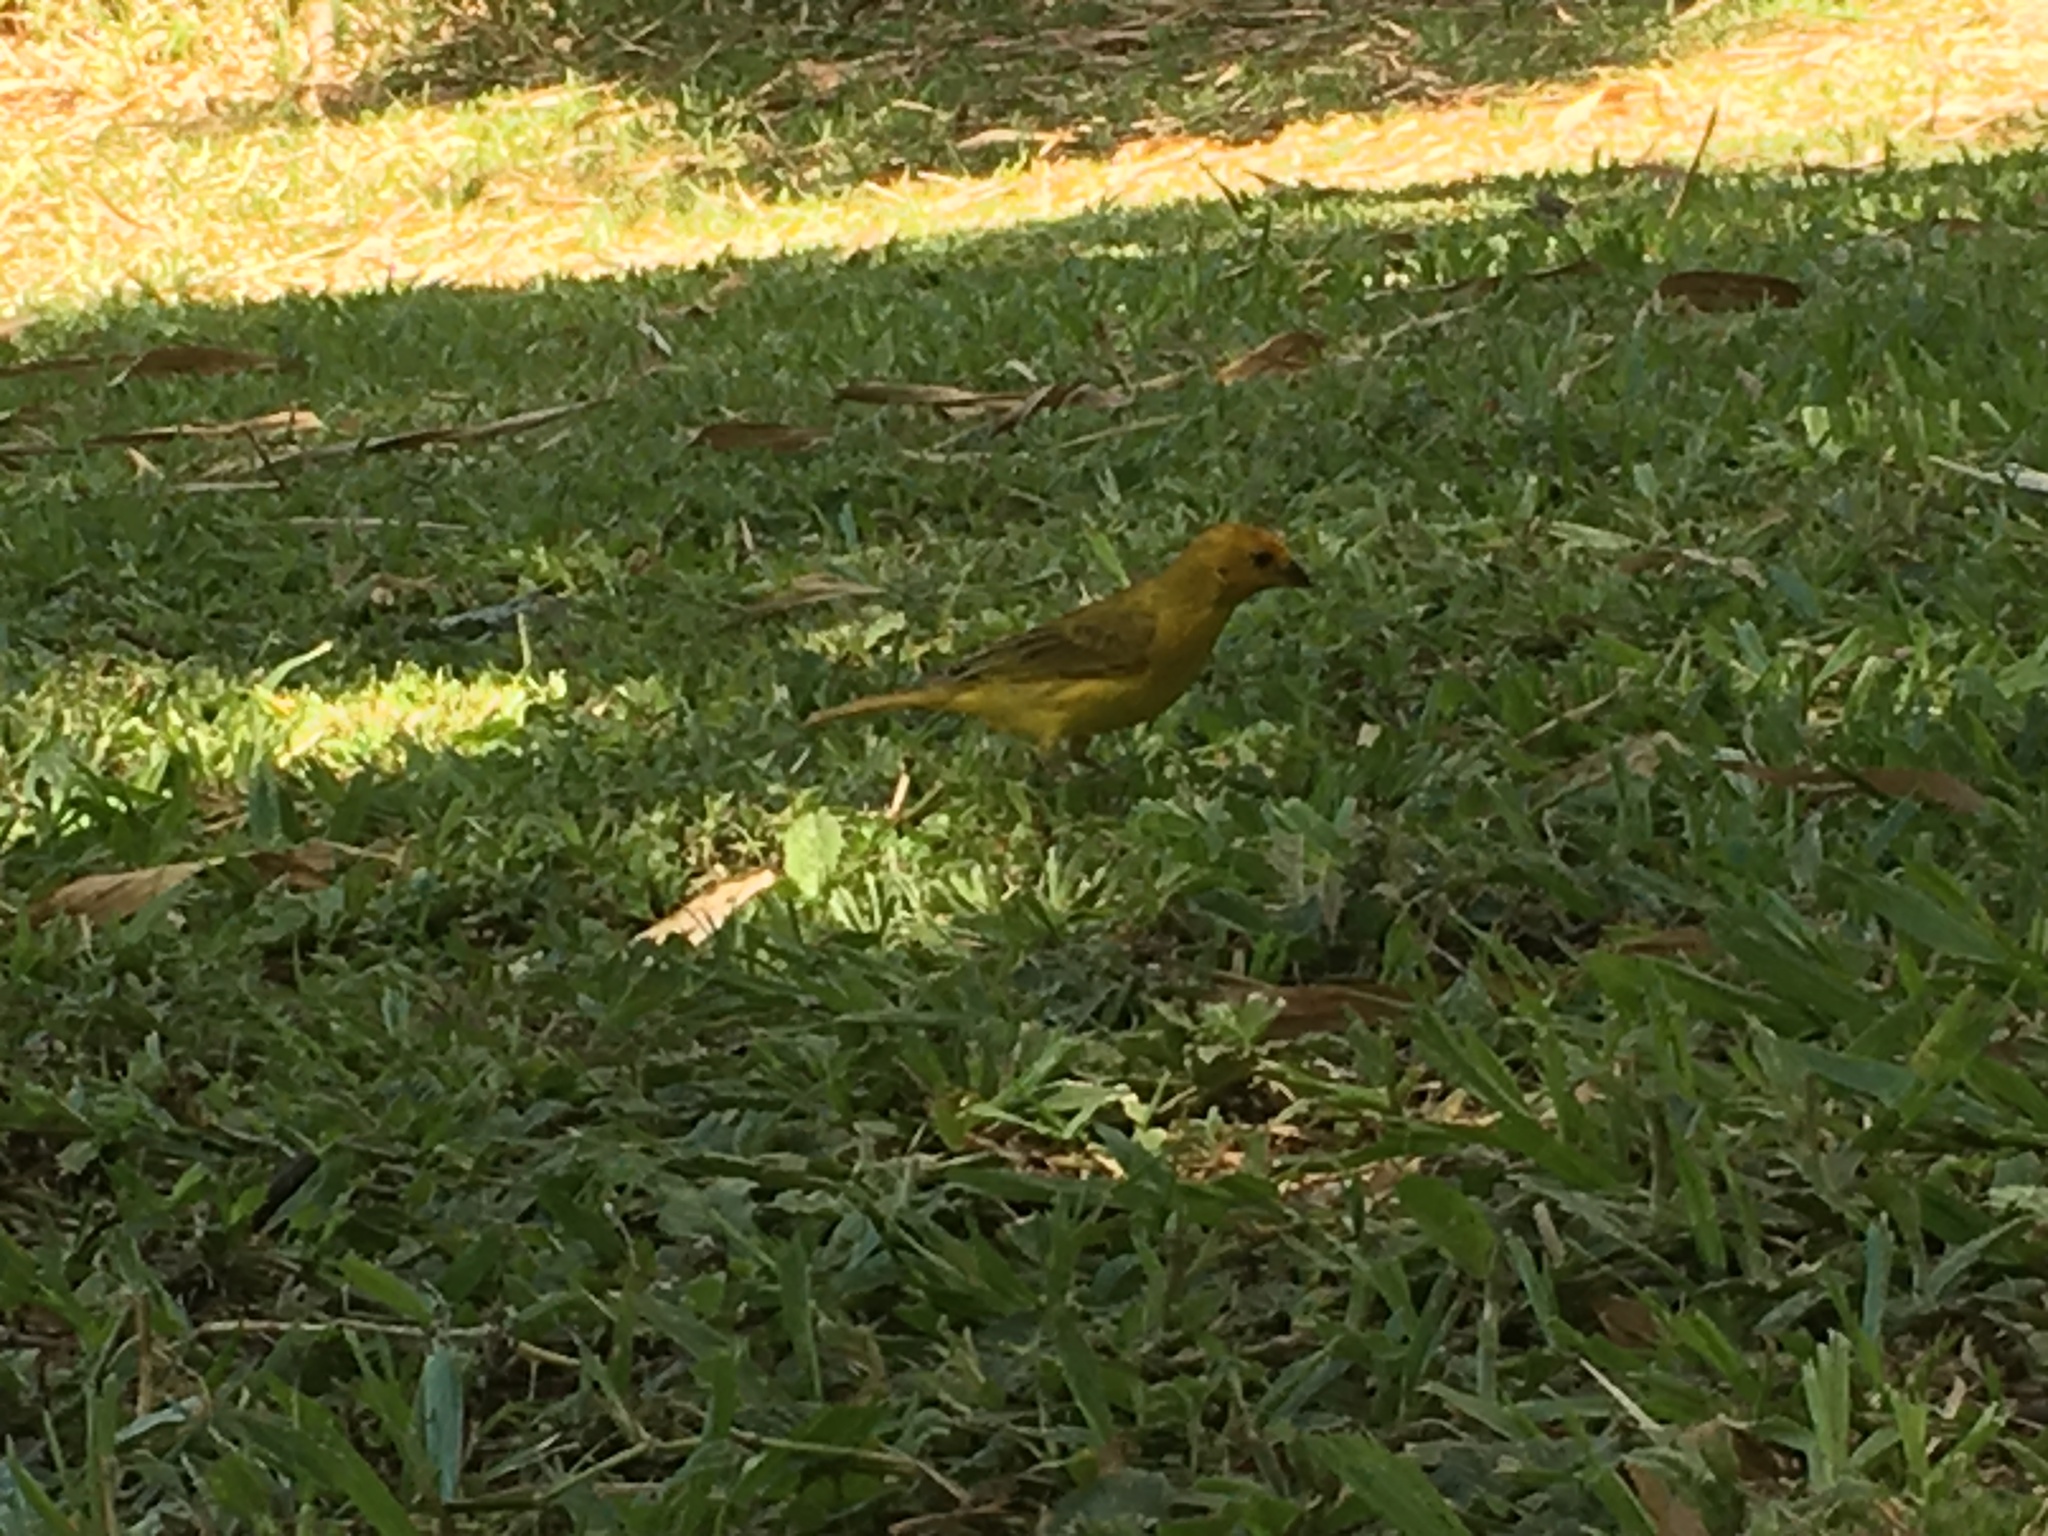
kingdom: Animalia
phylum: Chordata
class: Aves
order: Passeriformes
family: Thraupidae
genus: Sicalis
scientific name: Sicalis flaveola
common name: Saffron finch
